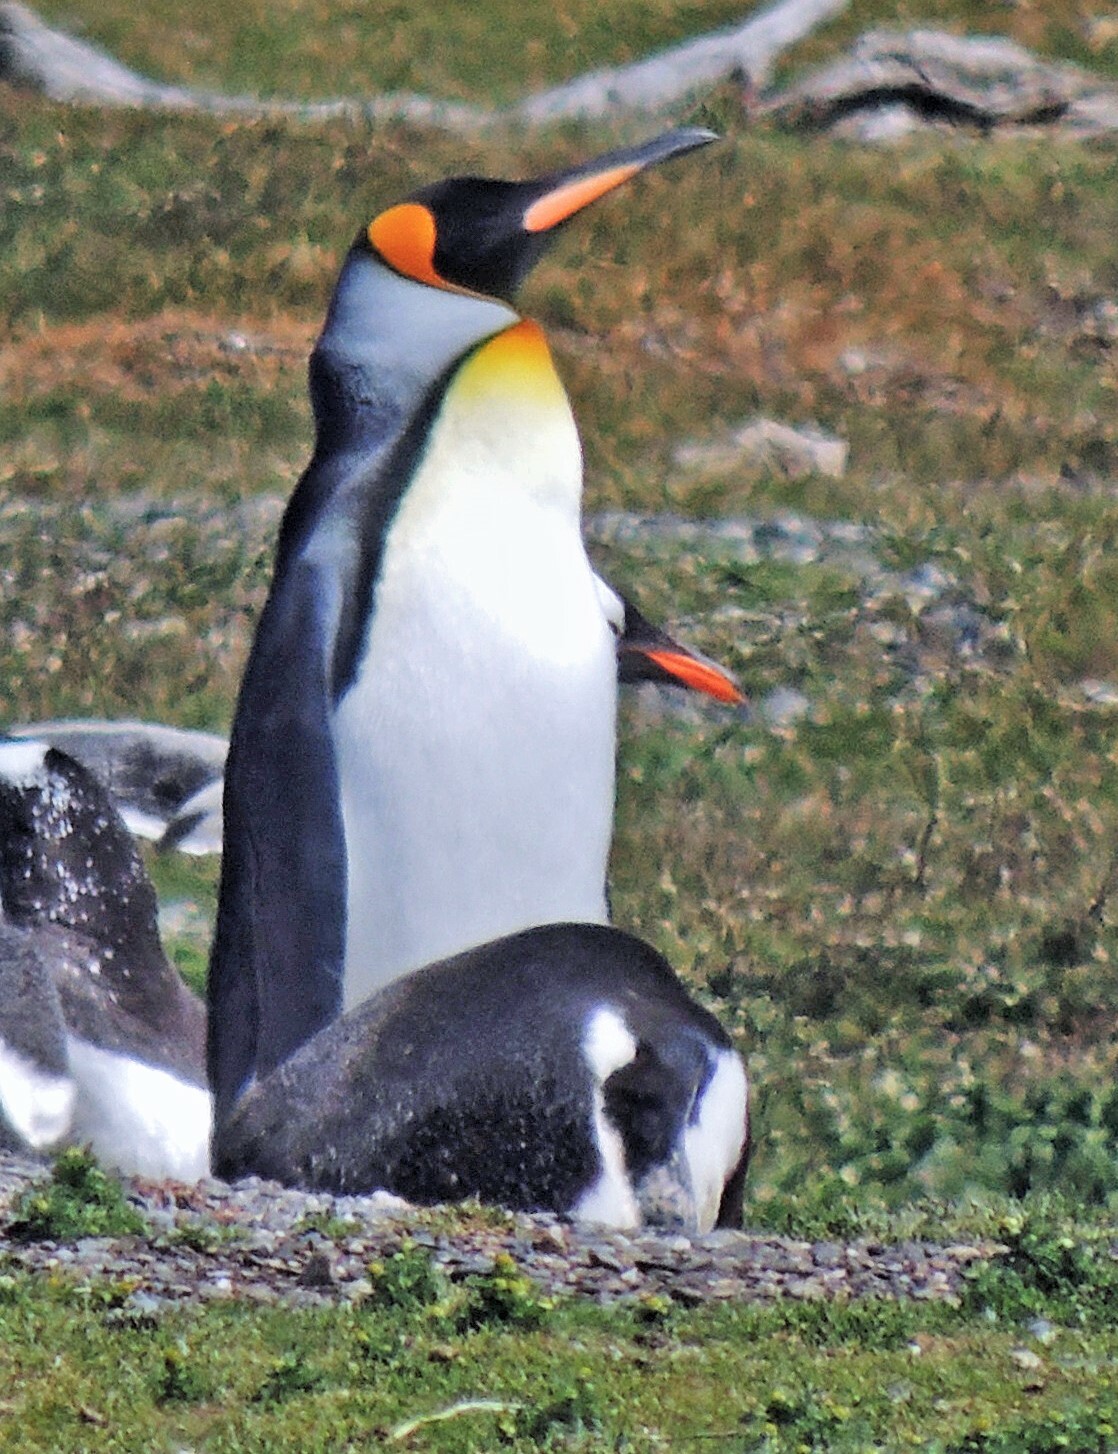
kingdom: Animalia
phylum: Chordata
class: Aves
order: Sphenisciformes
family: Spheniscidae
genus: Aptenodytes
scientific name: Aptenodytes patagonicus
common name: King penguin
